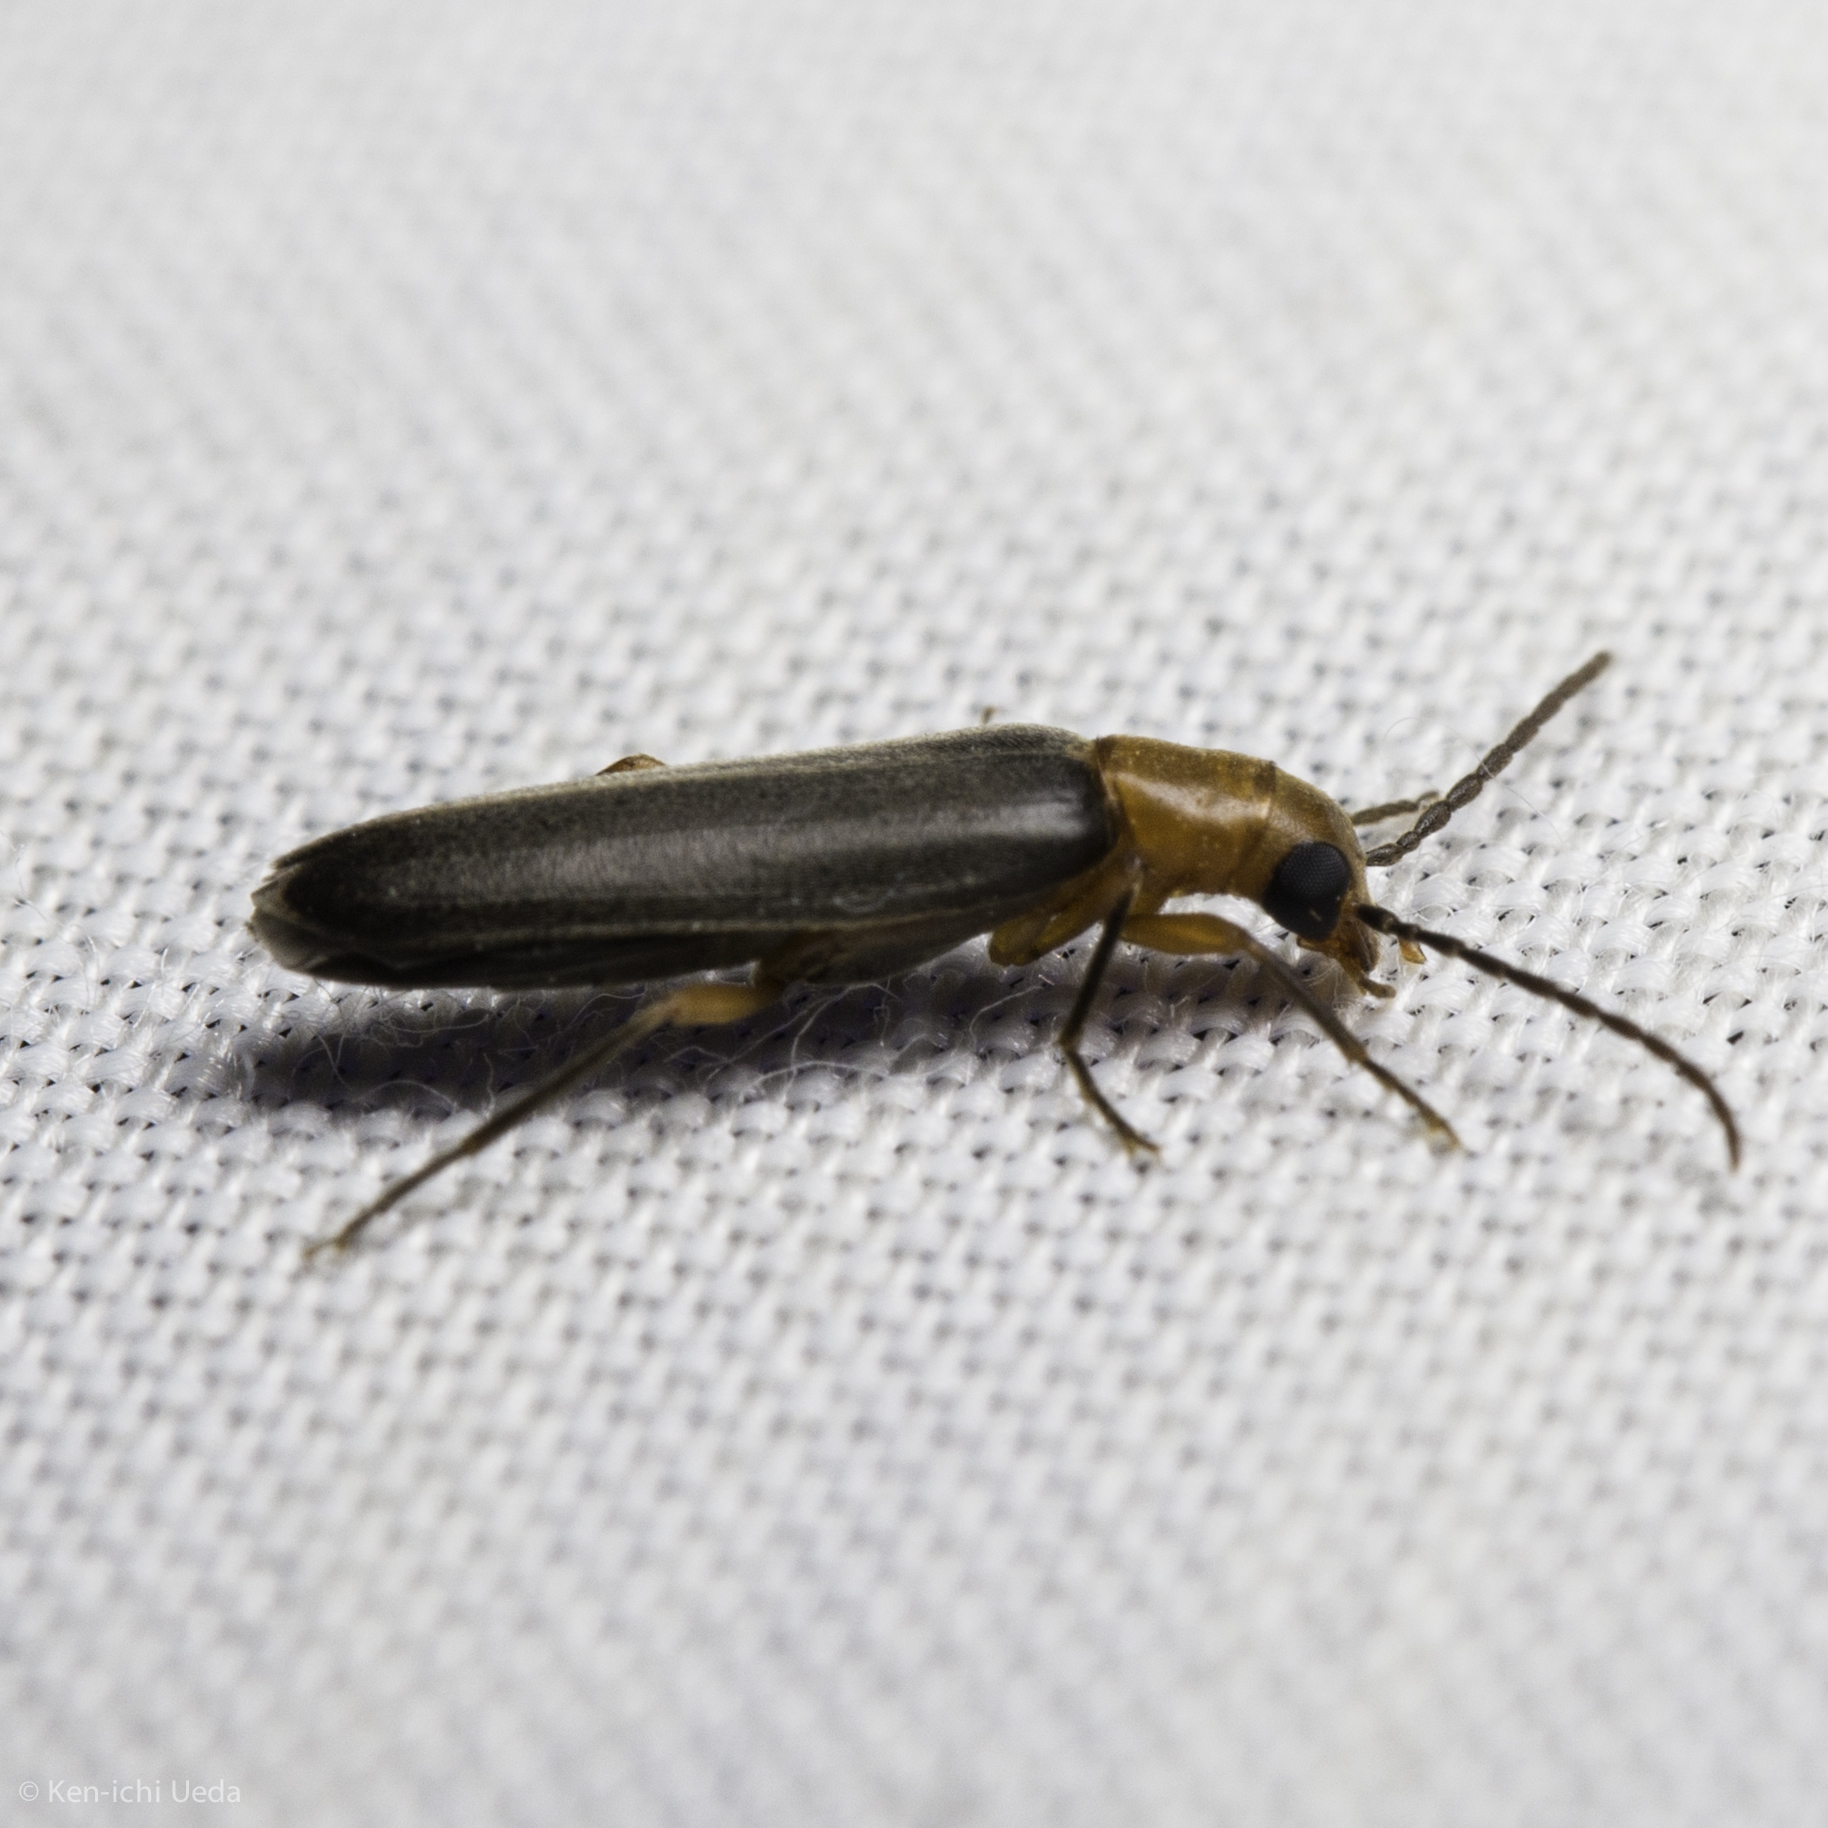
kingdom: Animalia
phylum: Arthropoda
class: Insecta
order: Coleoptera
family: Oedemeridae
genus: Xanthochroina
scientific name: Xanthochroina bicolor
